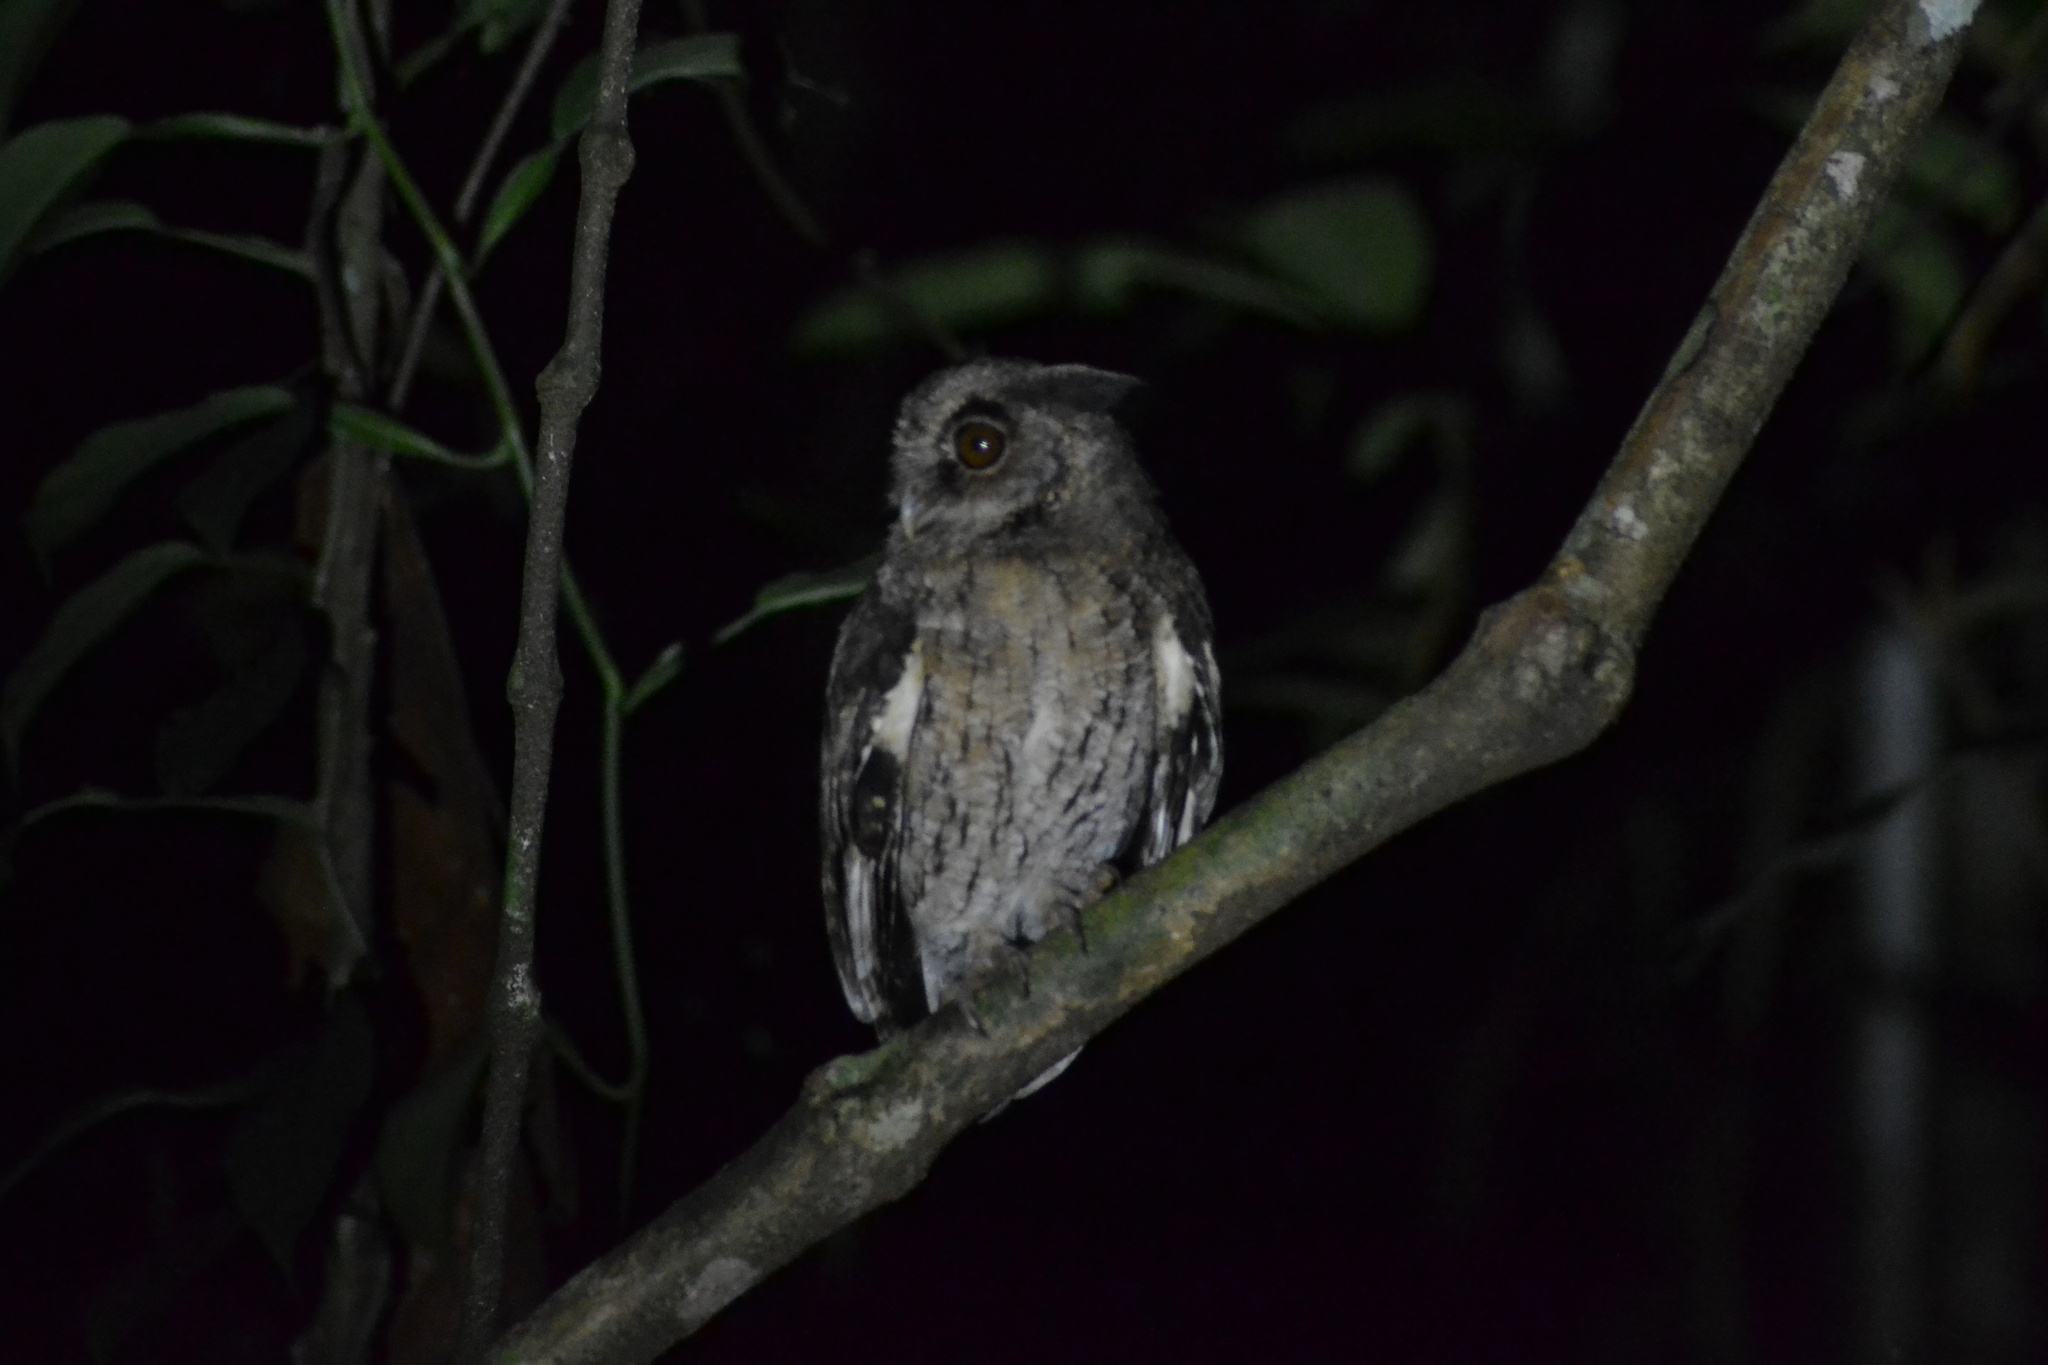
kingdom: Animalia
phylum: Chordata
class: Aves
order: Strigiformes
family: Strigidae
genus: Megascops
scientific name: Megascops watsonii
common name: Tawny-bellied screech-owl
